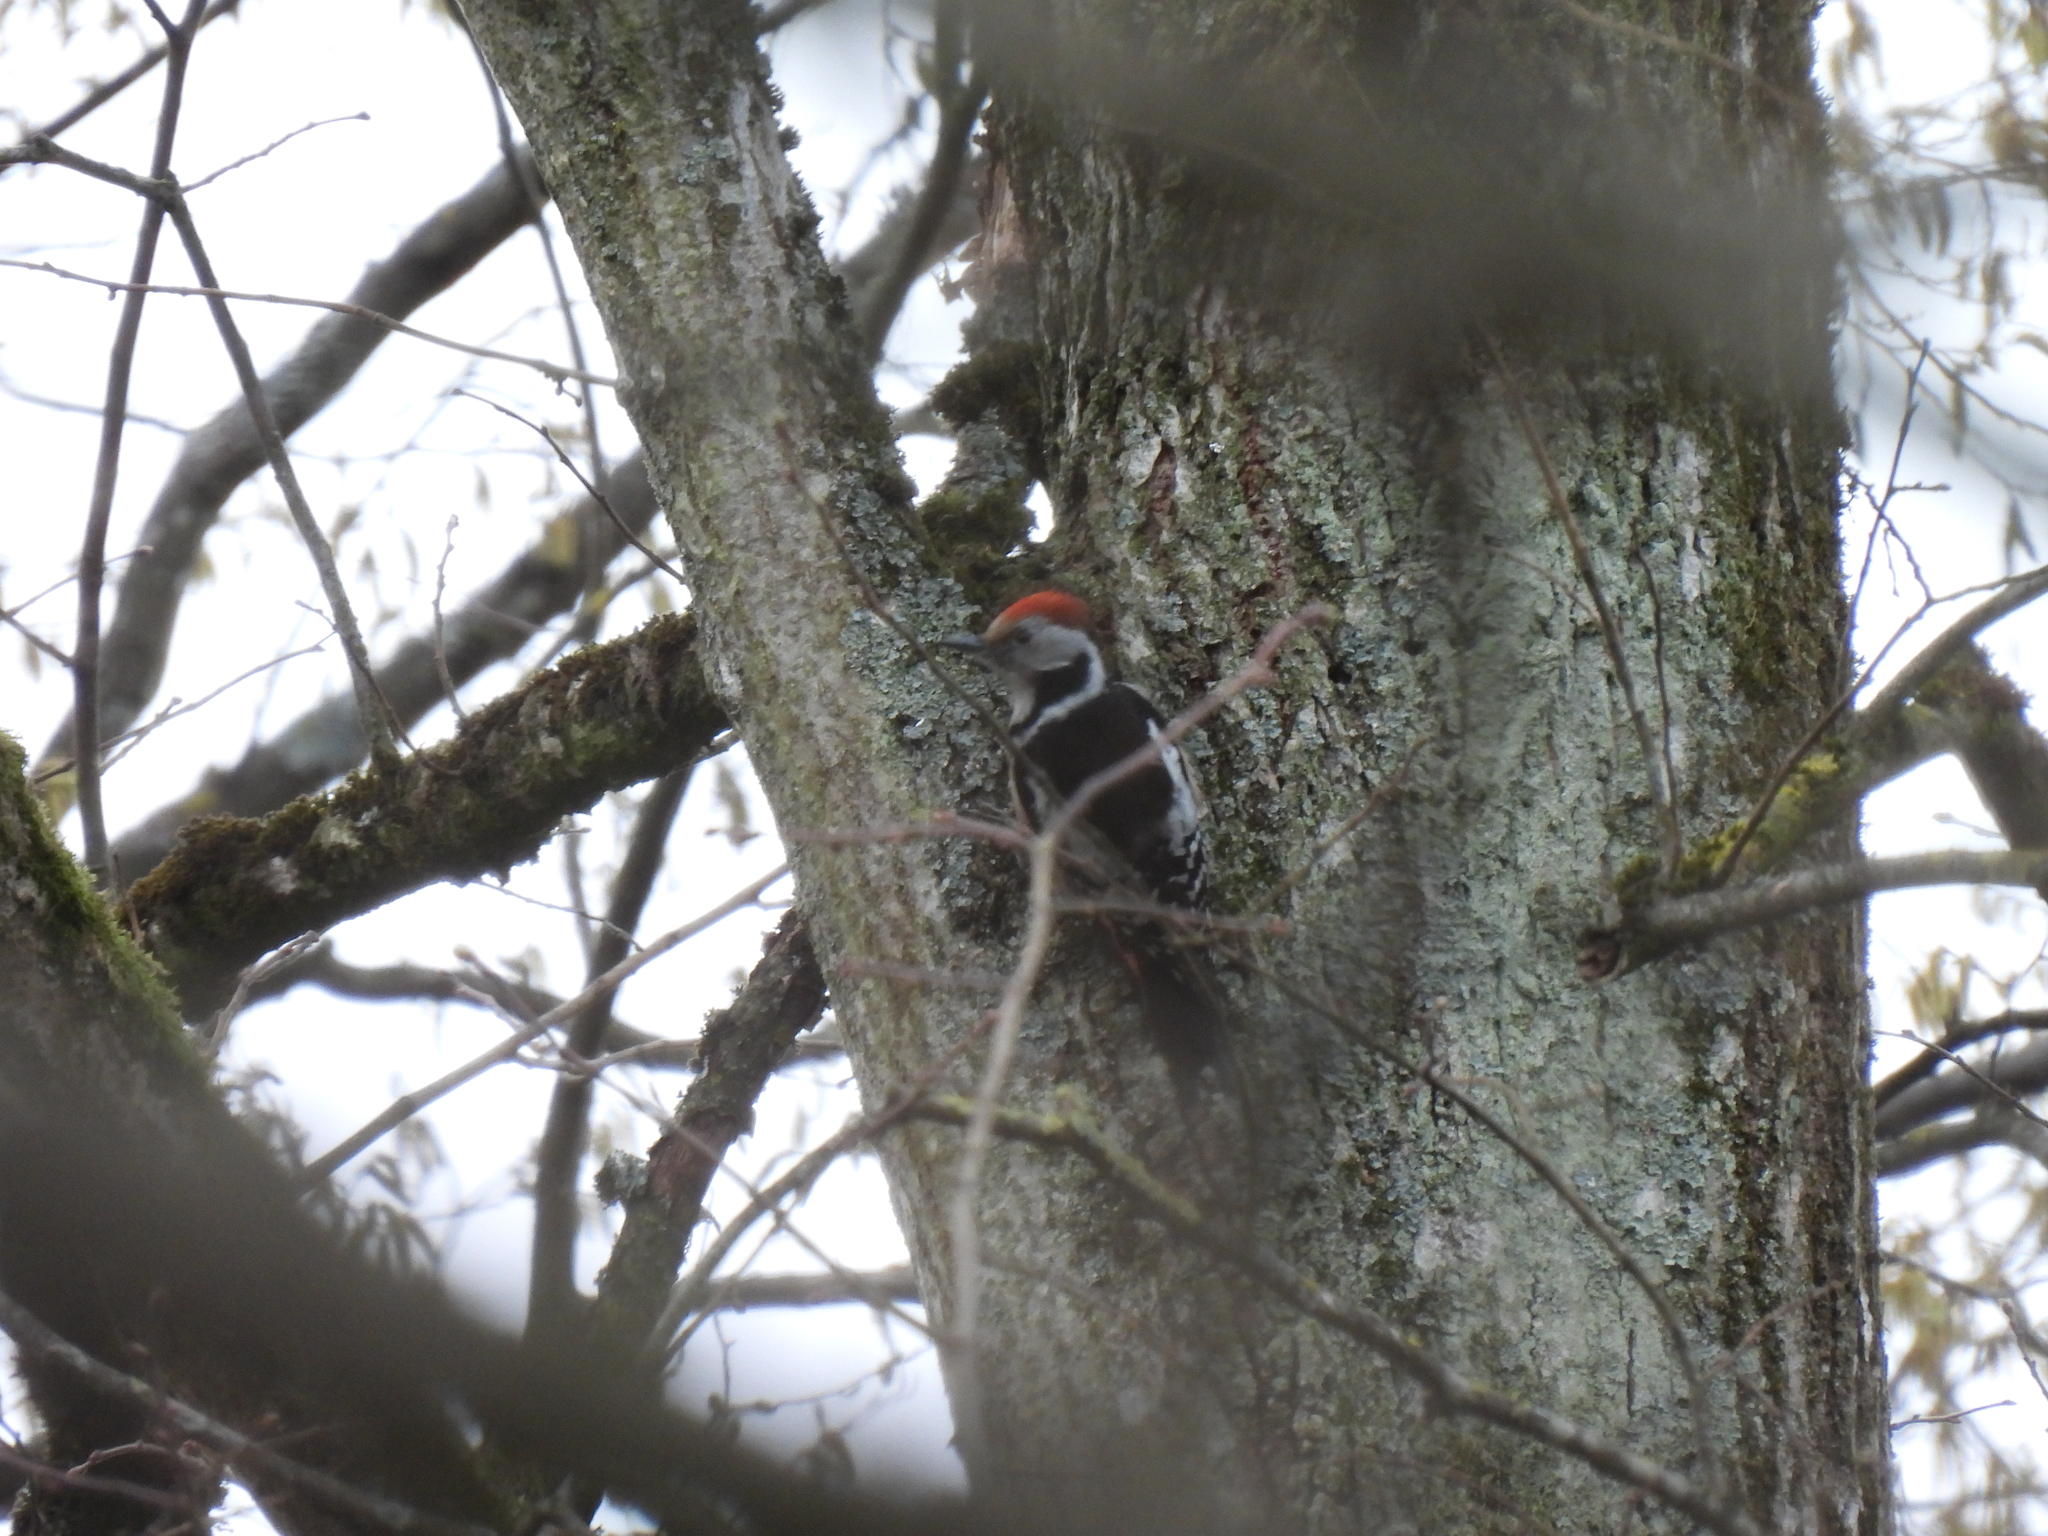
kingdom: Animalia
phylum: Chordata
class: Aves
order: Piciformes
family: Picidae
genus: Dendrocoptes
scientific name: Dendrocoptes medius
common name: Middle spotted woodpecker
